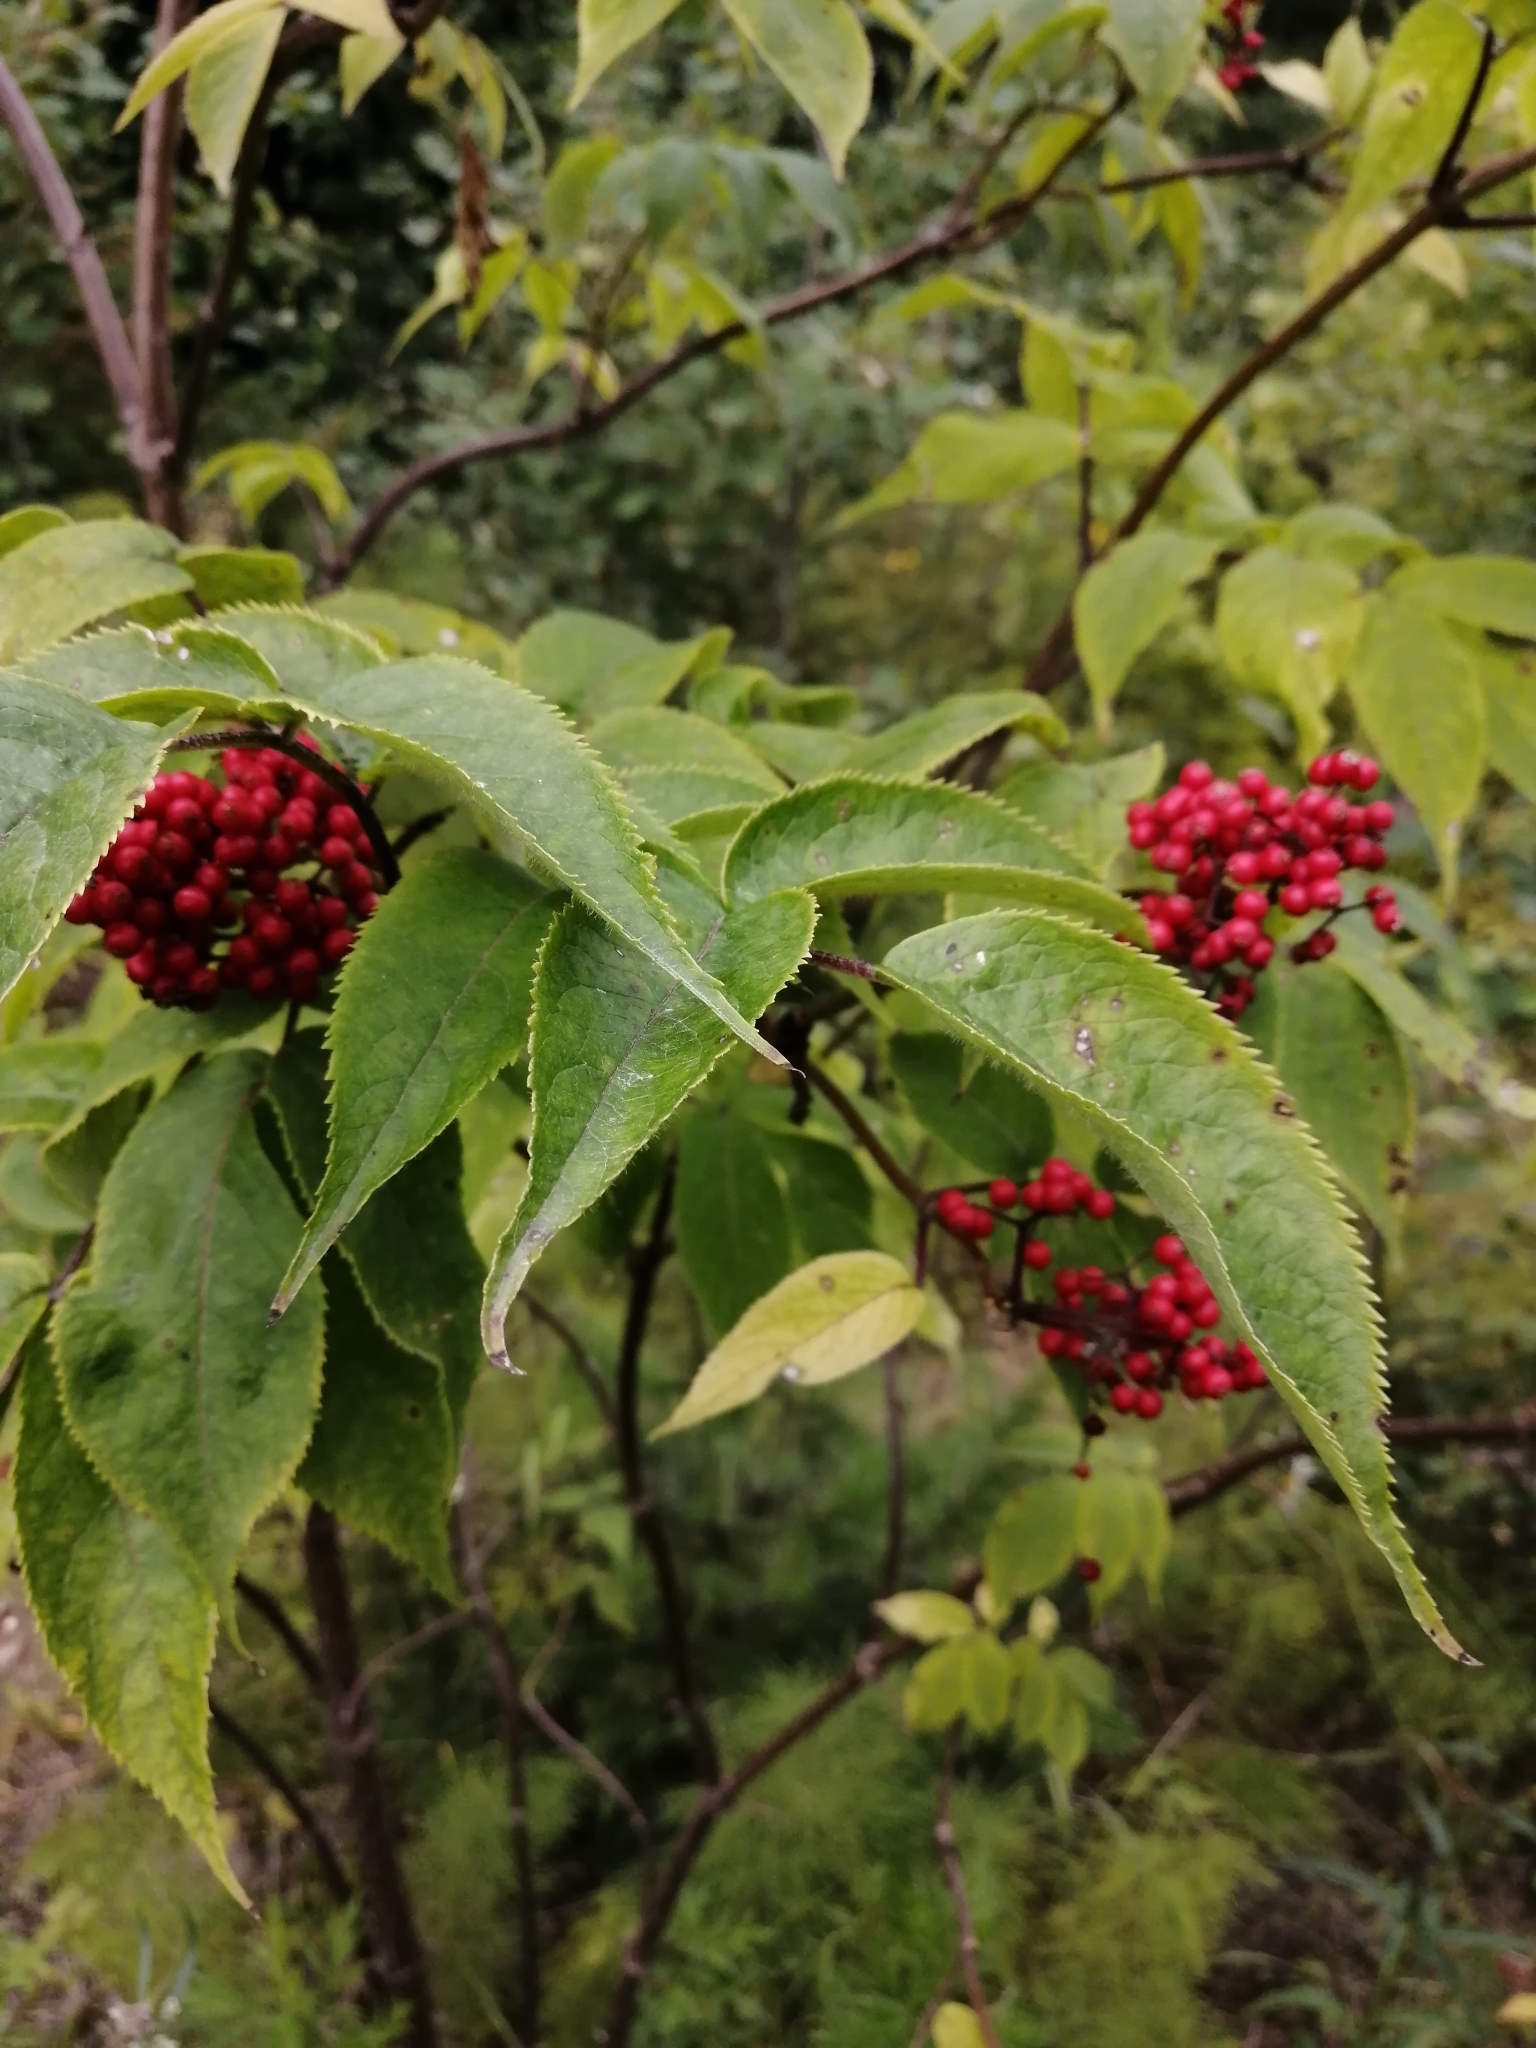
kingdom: Plantae
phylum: Tracheophyta
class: Magnoliopsida
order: Dipsacales
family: Viburnaceae
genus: Sambucus
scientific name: Sambucus sibirica
